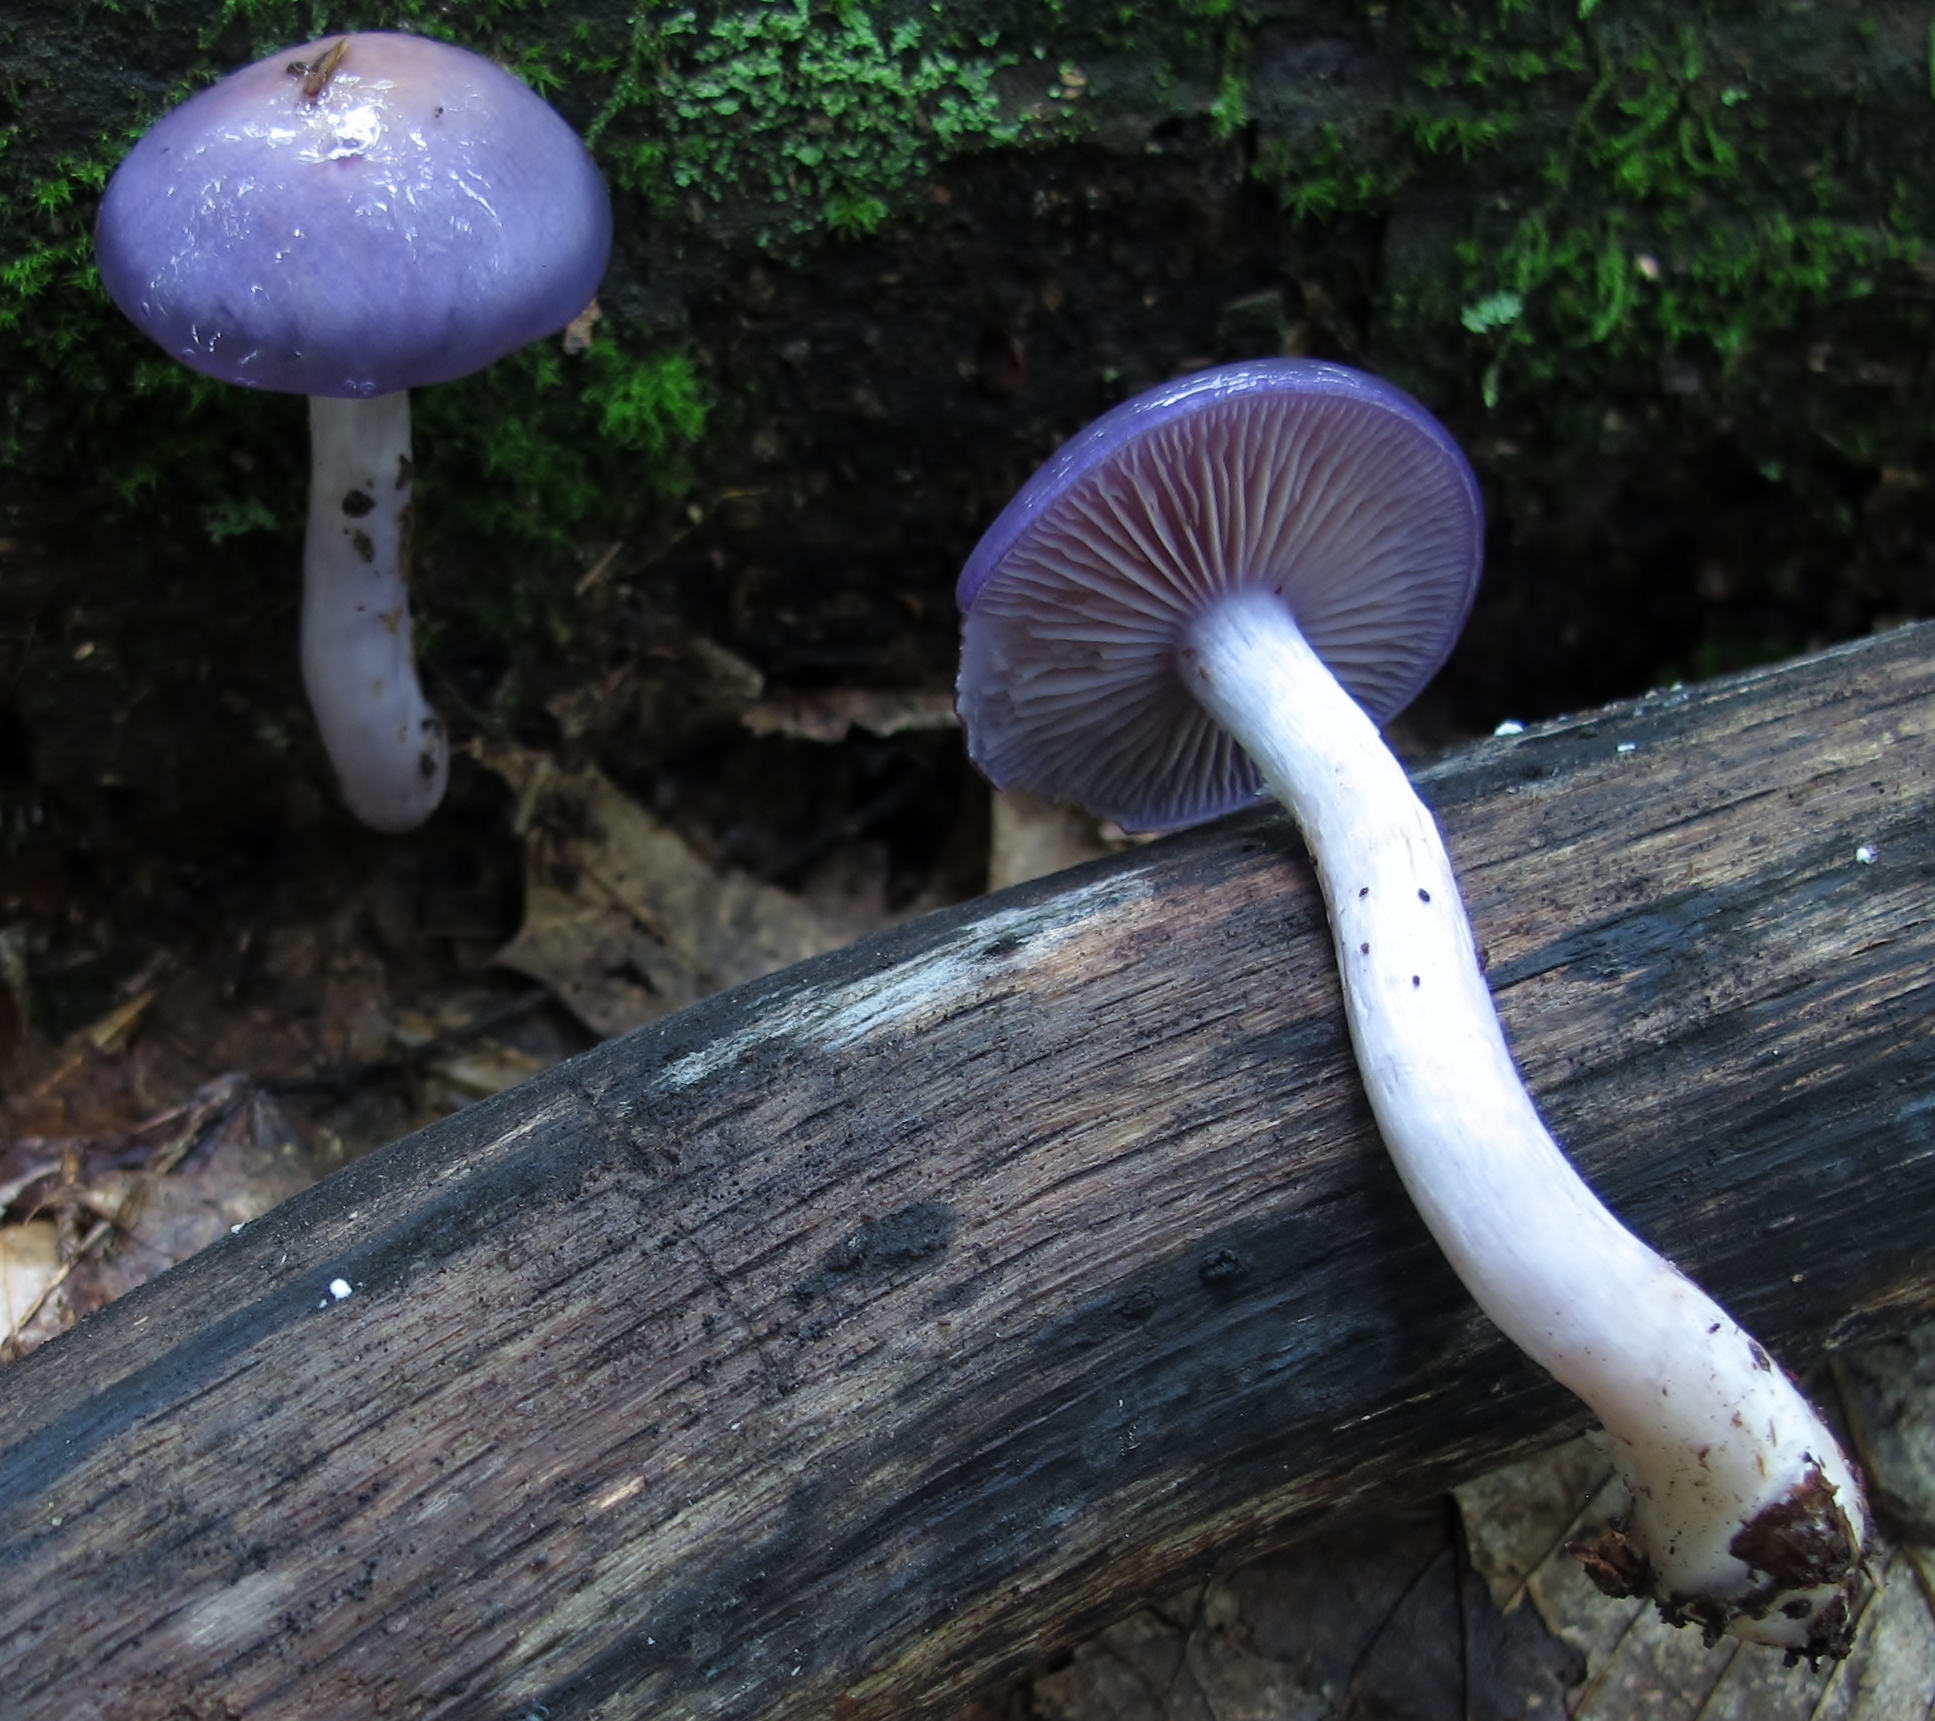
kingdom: Fungi
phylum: Basidiomycota
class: Agaricomycetes
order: Agaricales
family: Cortinariaceae
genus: Cortinarius
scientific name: Cortinarius iodes
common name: Viscid violet cort
